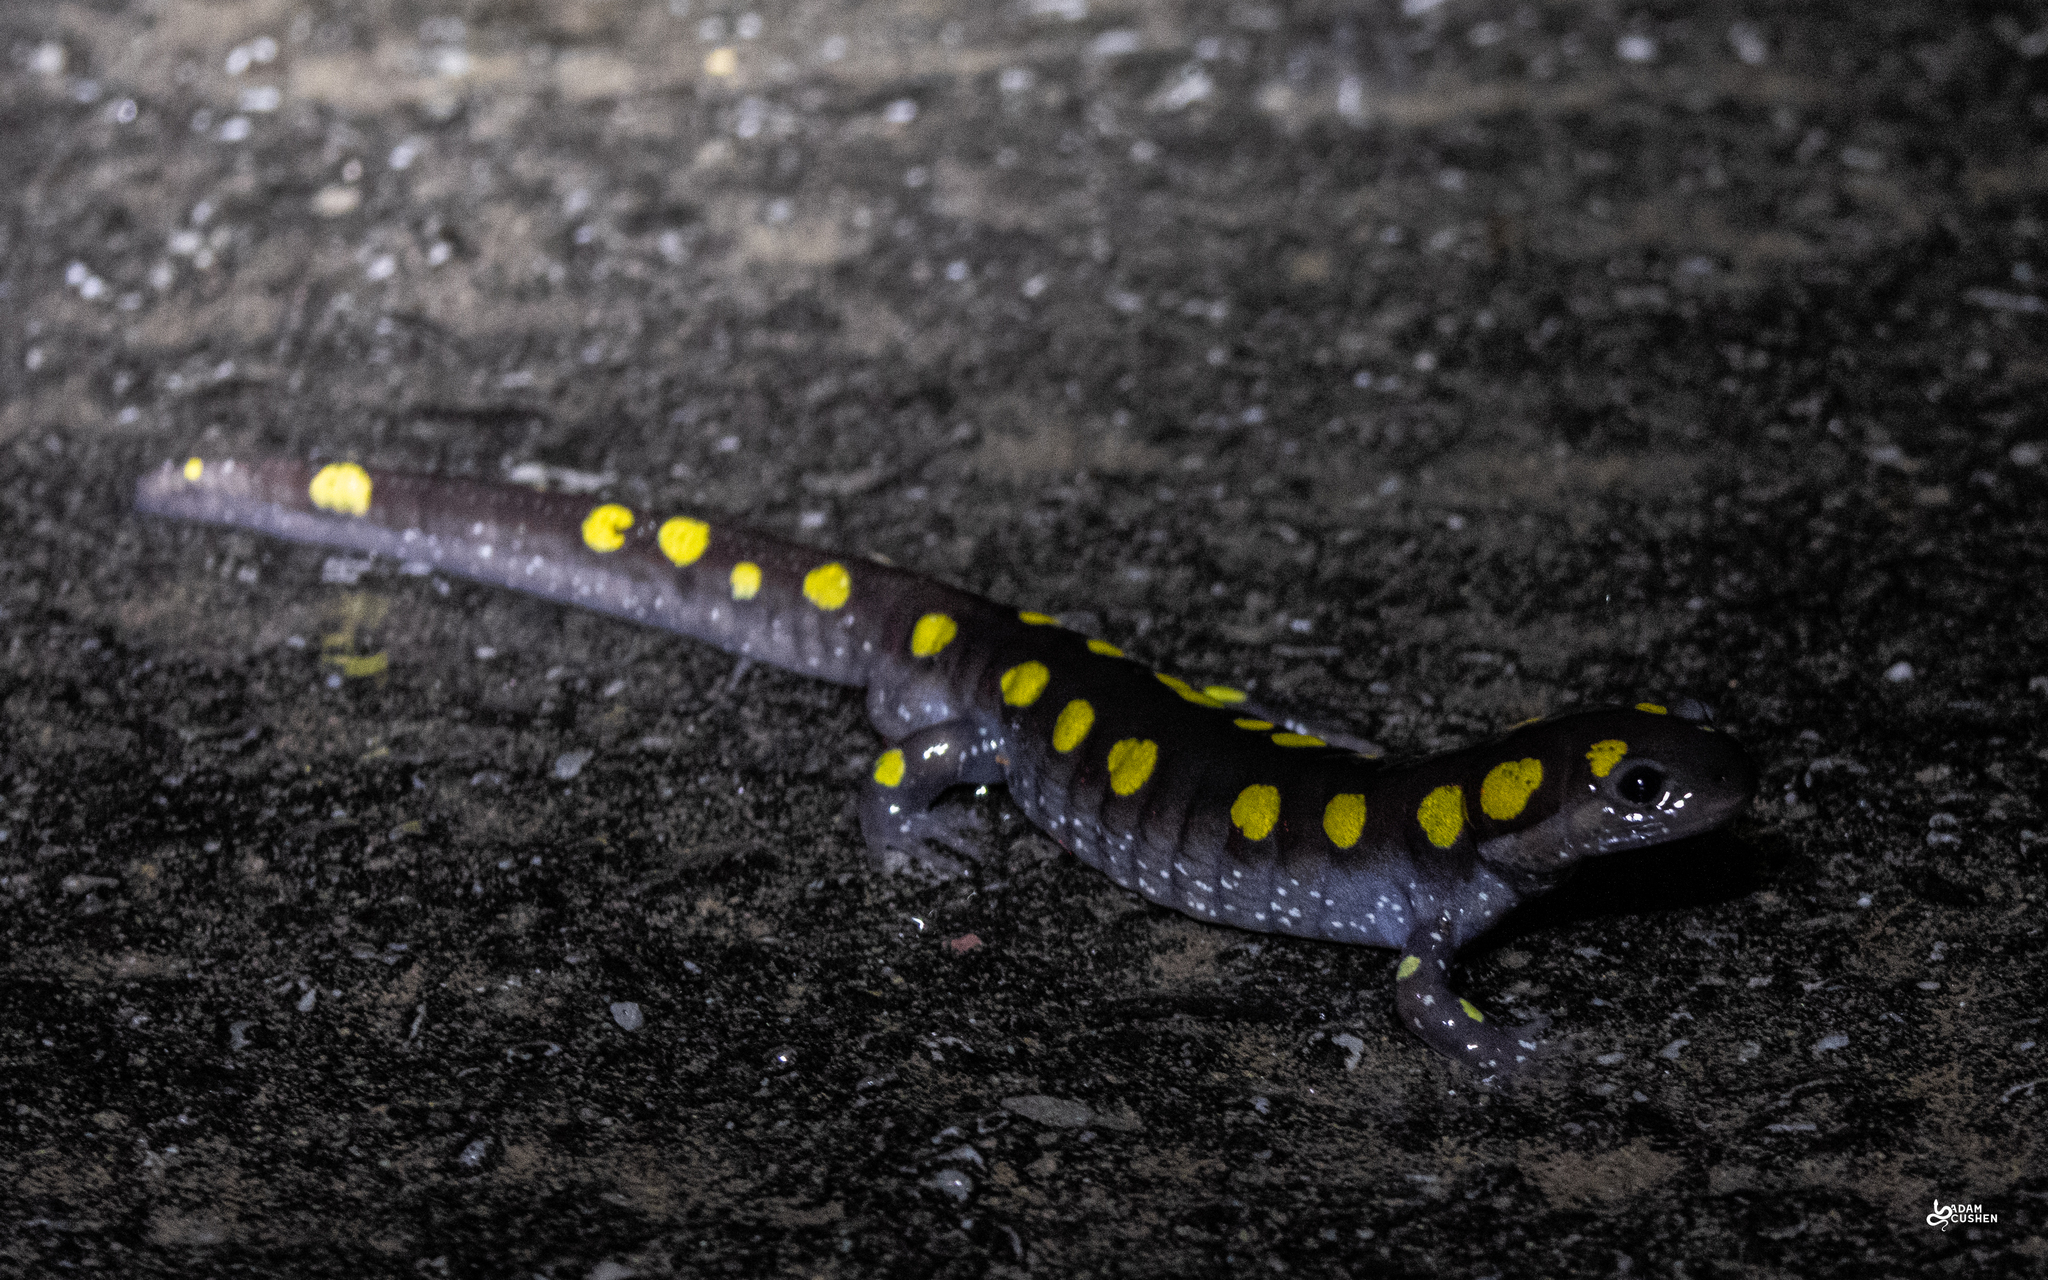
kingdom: Animalia
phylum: Chordata
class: Amphibia
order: Caudata
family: Ambystomatidae
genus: Ambystoma
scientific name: Ambystoma maculatum
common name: Spotted salamander
